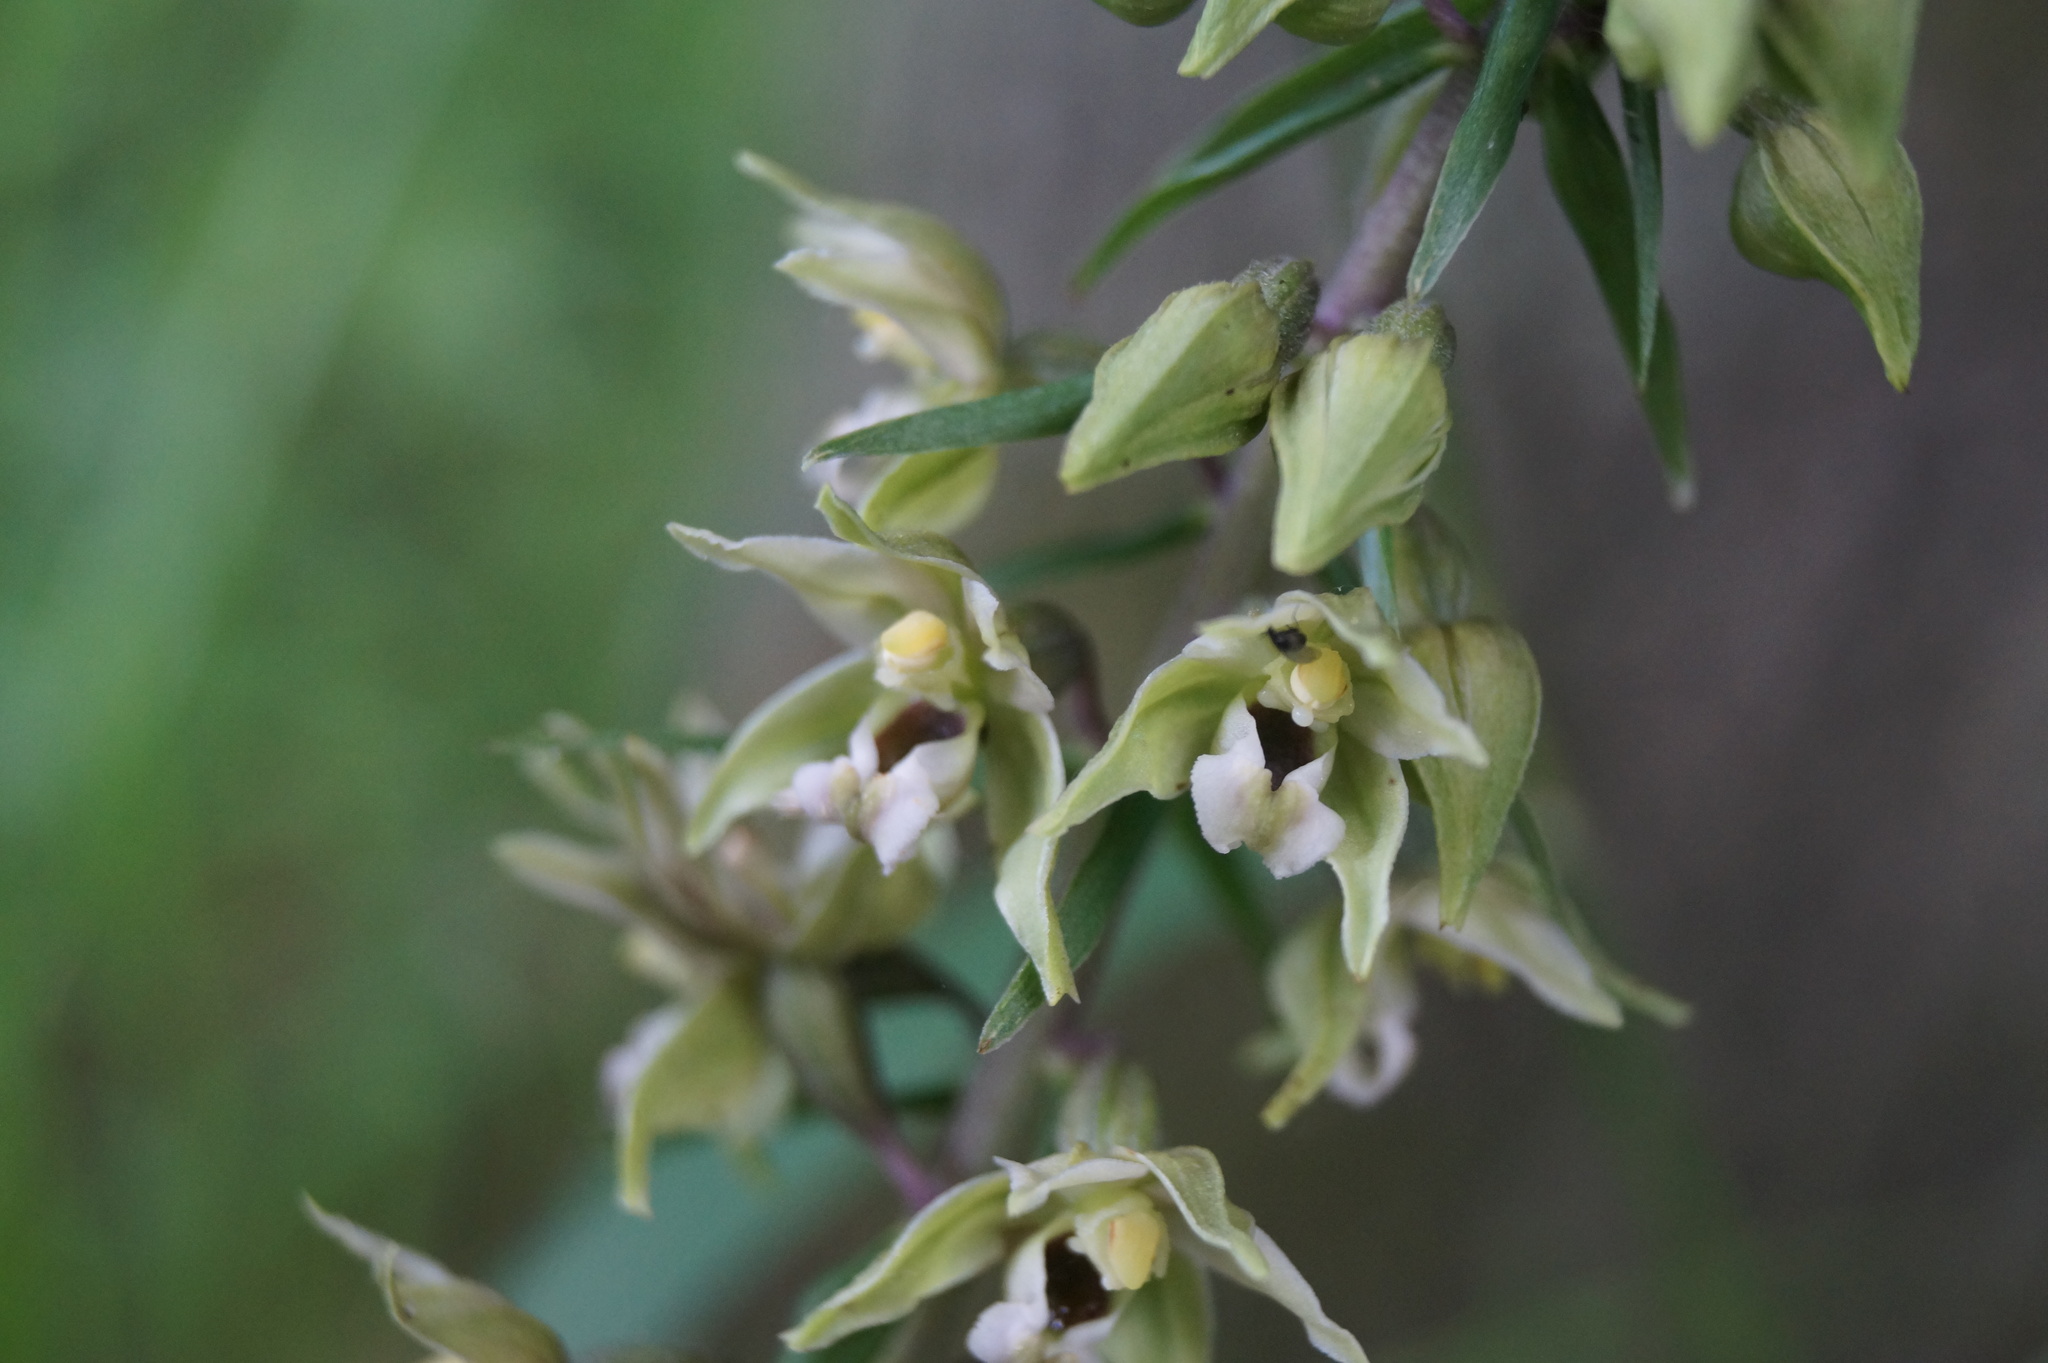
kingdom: Plantae
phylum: Tracheophyta
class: Liliopsida
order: Asparagales
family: Orchidaceae
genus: Epipactis
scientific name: Epipactis helleborine
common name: Broad-leaved helleborine
